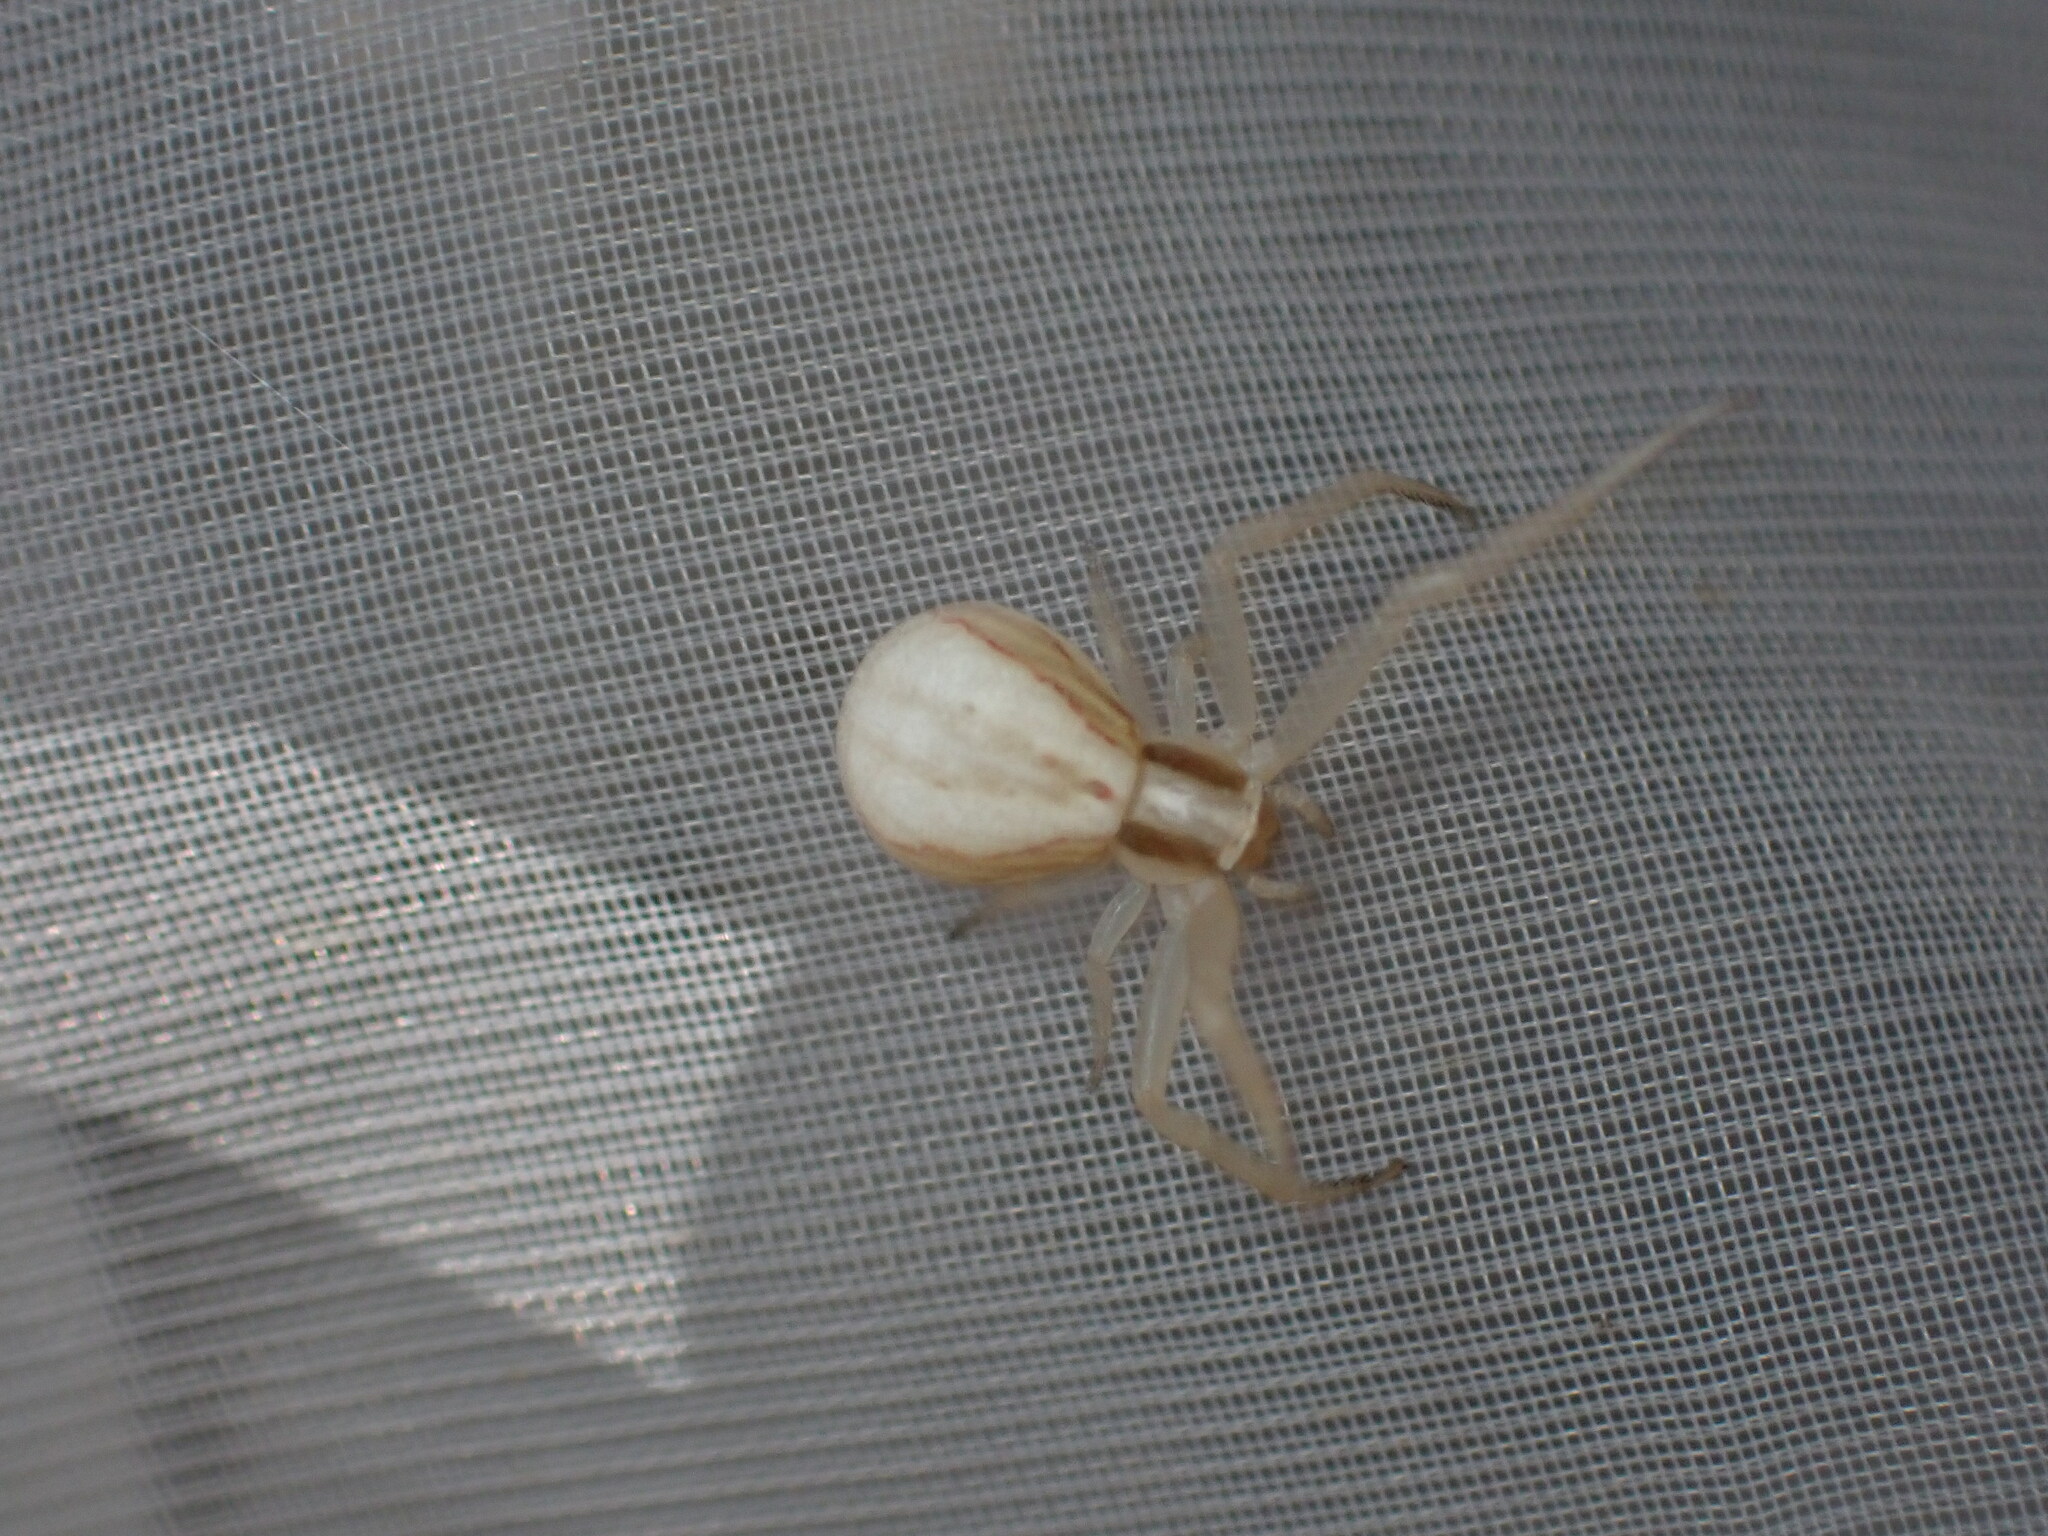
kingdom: Animalia
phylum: Arthropoda
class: Arachnida
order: Araneae
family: Thomisidae
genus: Runcinia
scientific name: Runcinia grammica
